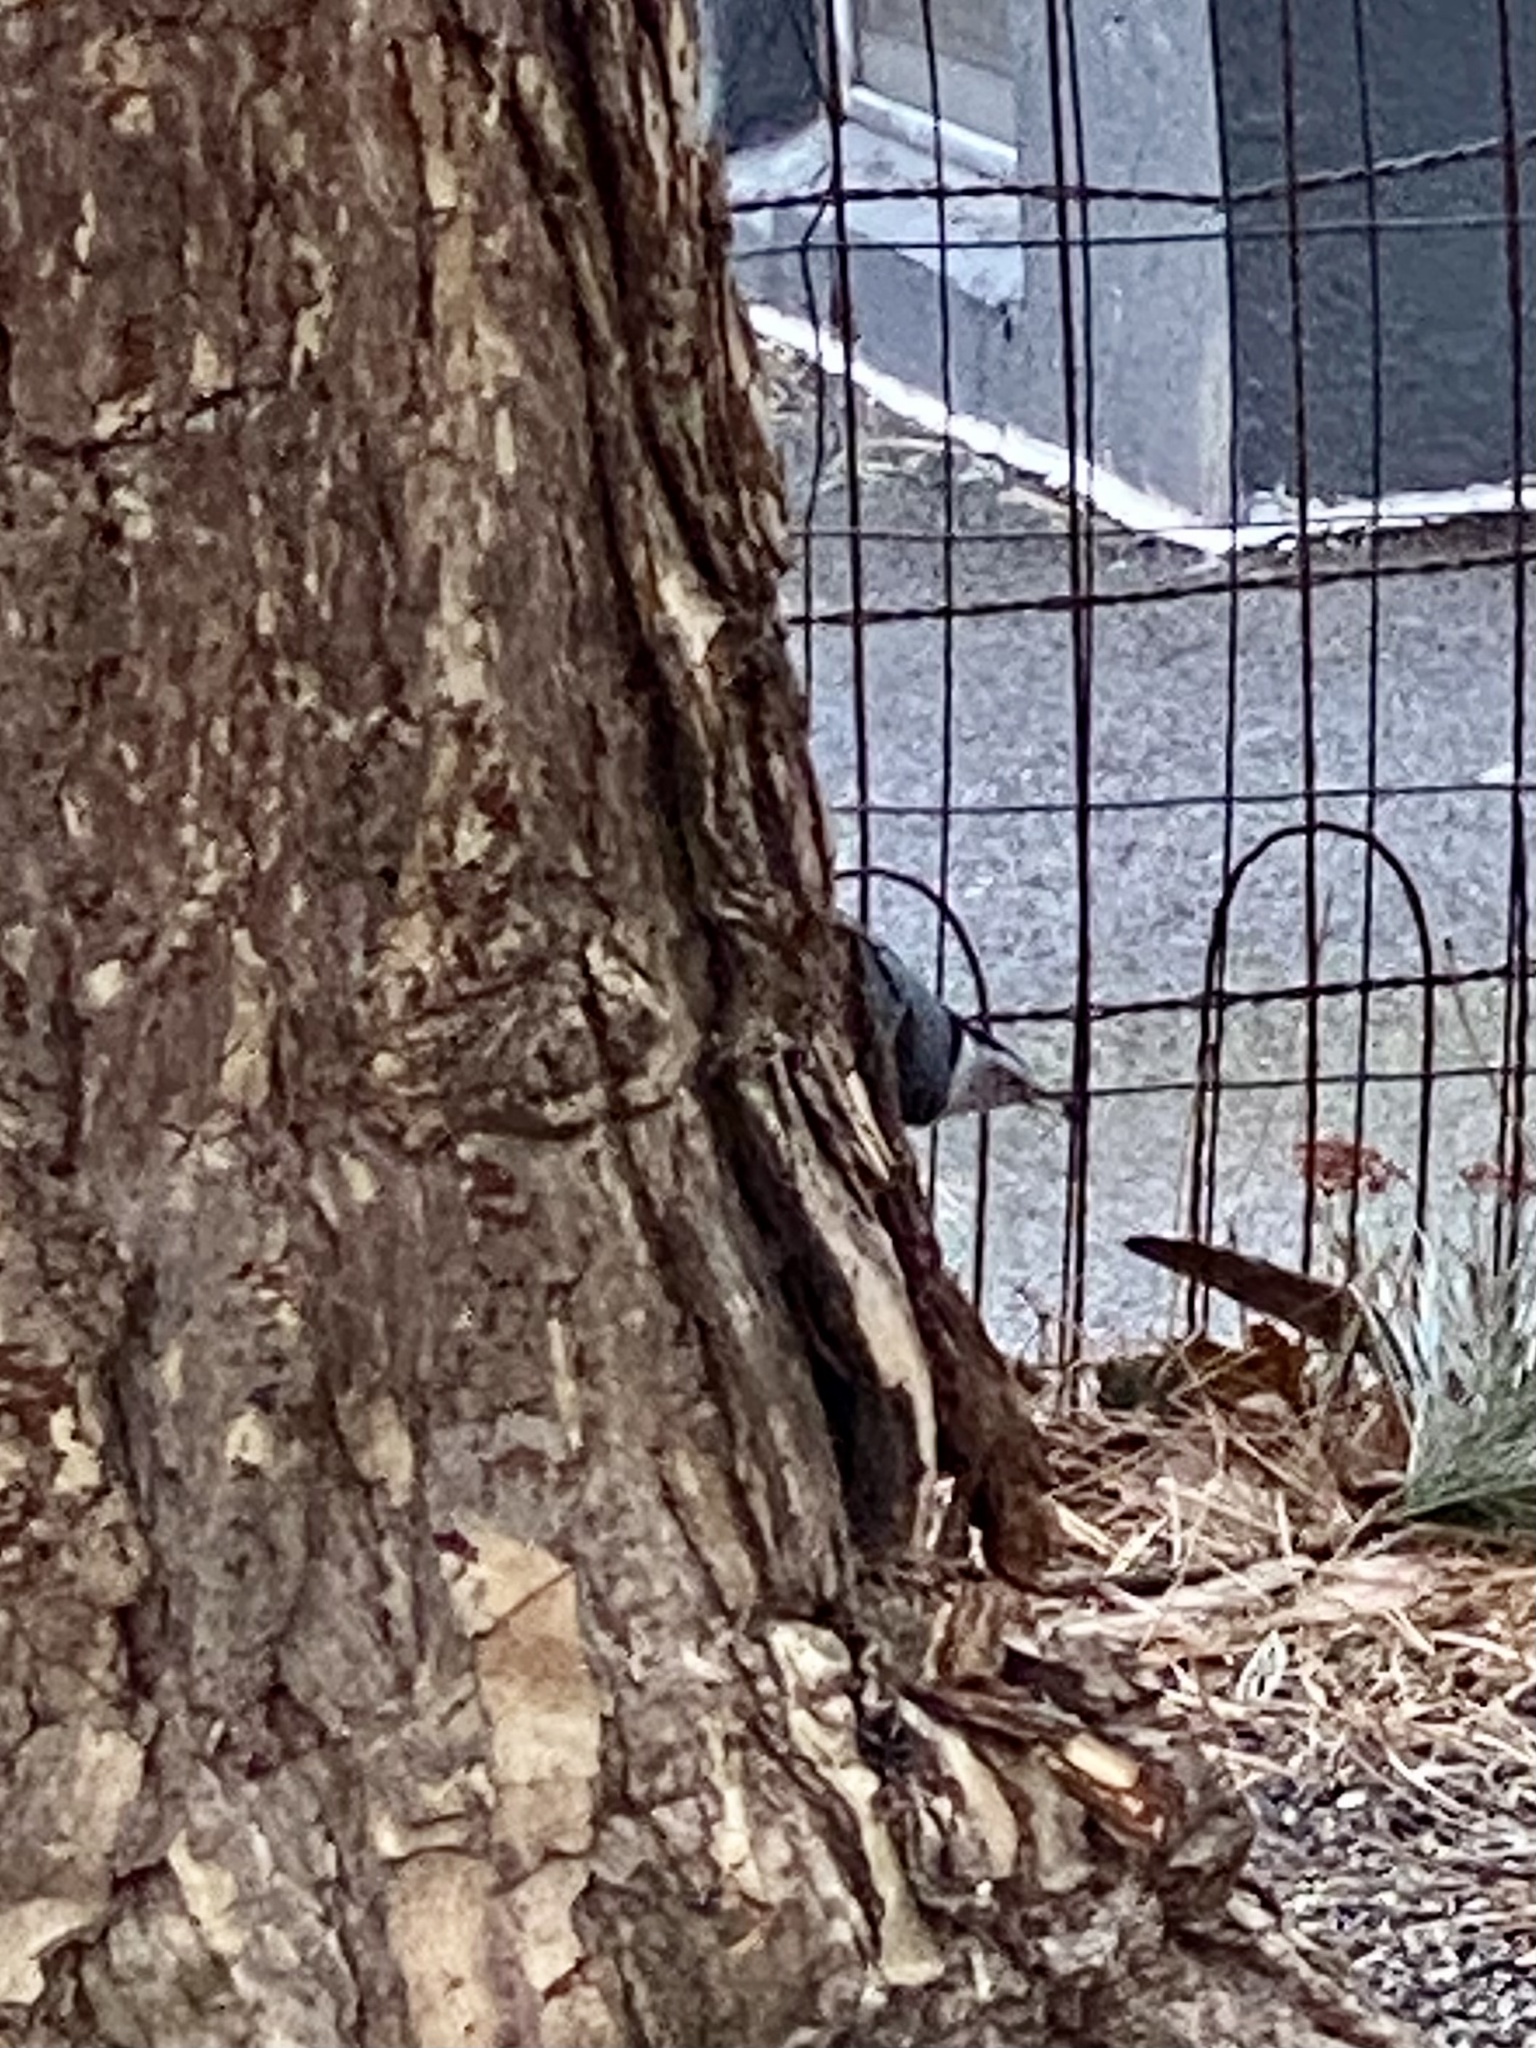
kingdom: Animalia
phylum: Chordata
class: Aves
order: Passeriformes
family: Sittidae
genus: Sitta
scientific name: Sitta carolinensis
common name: White-breasted nuthatch
